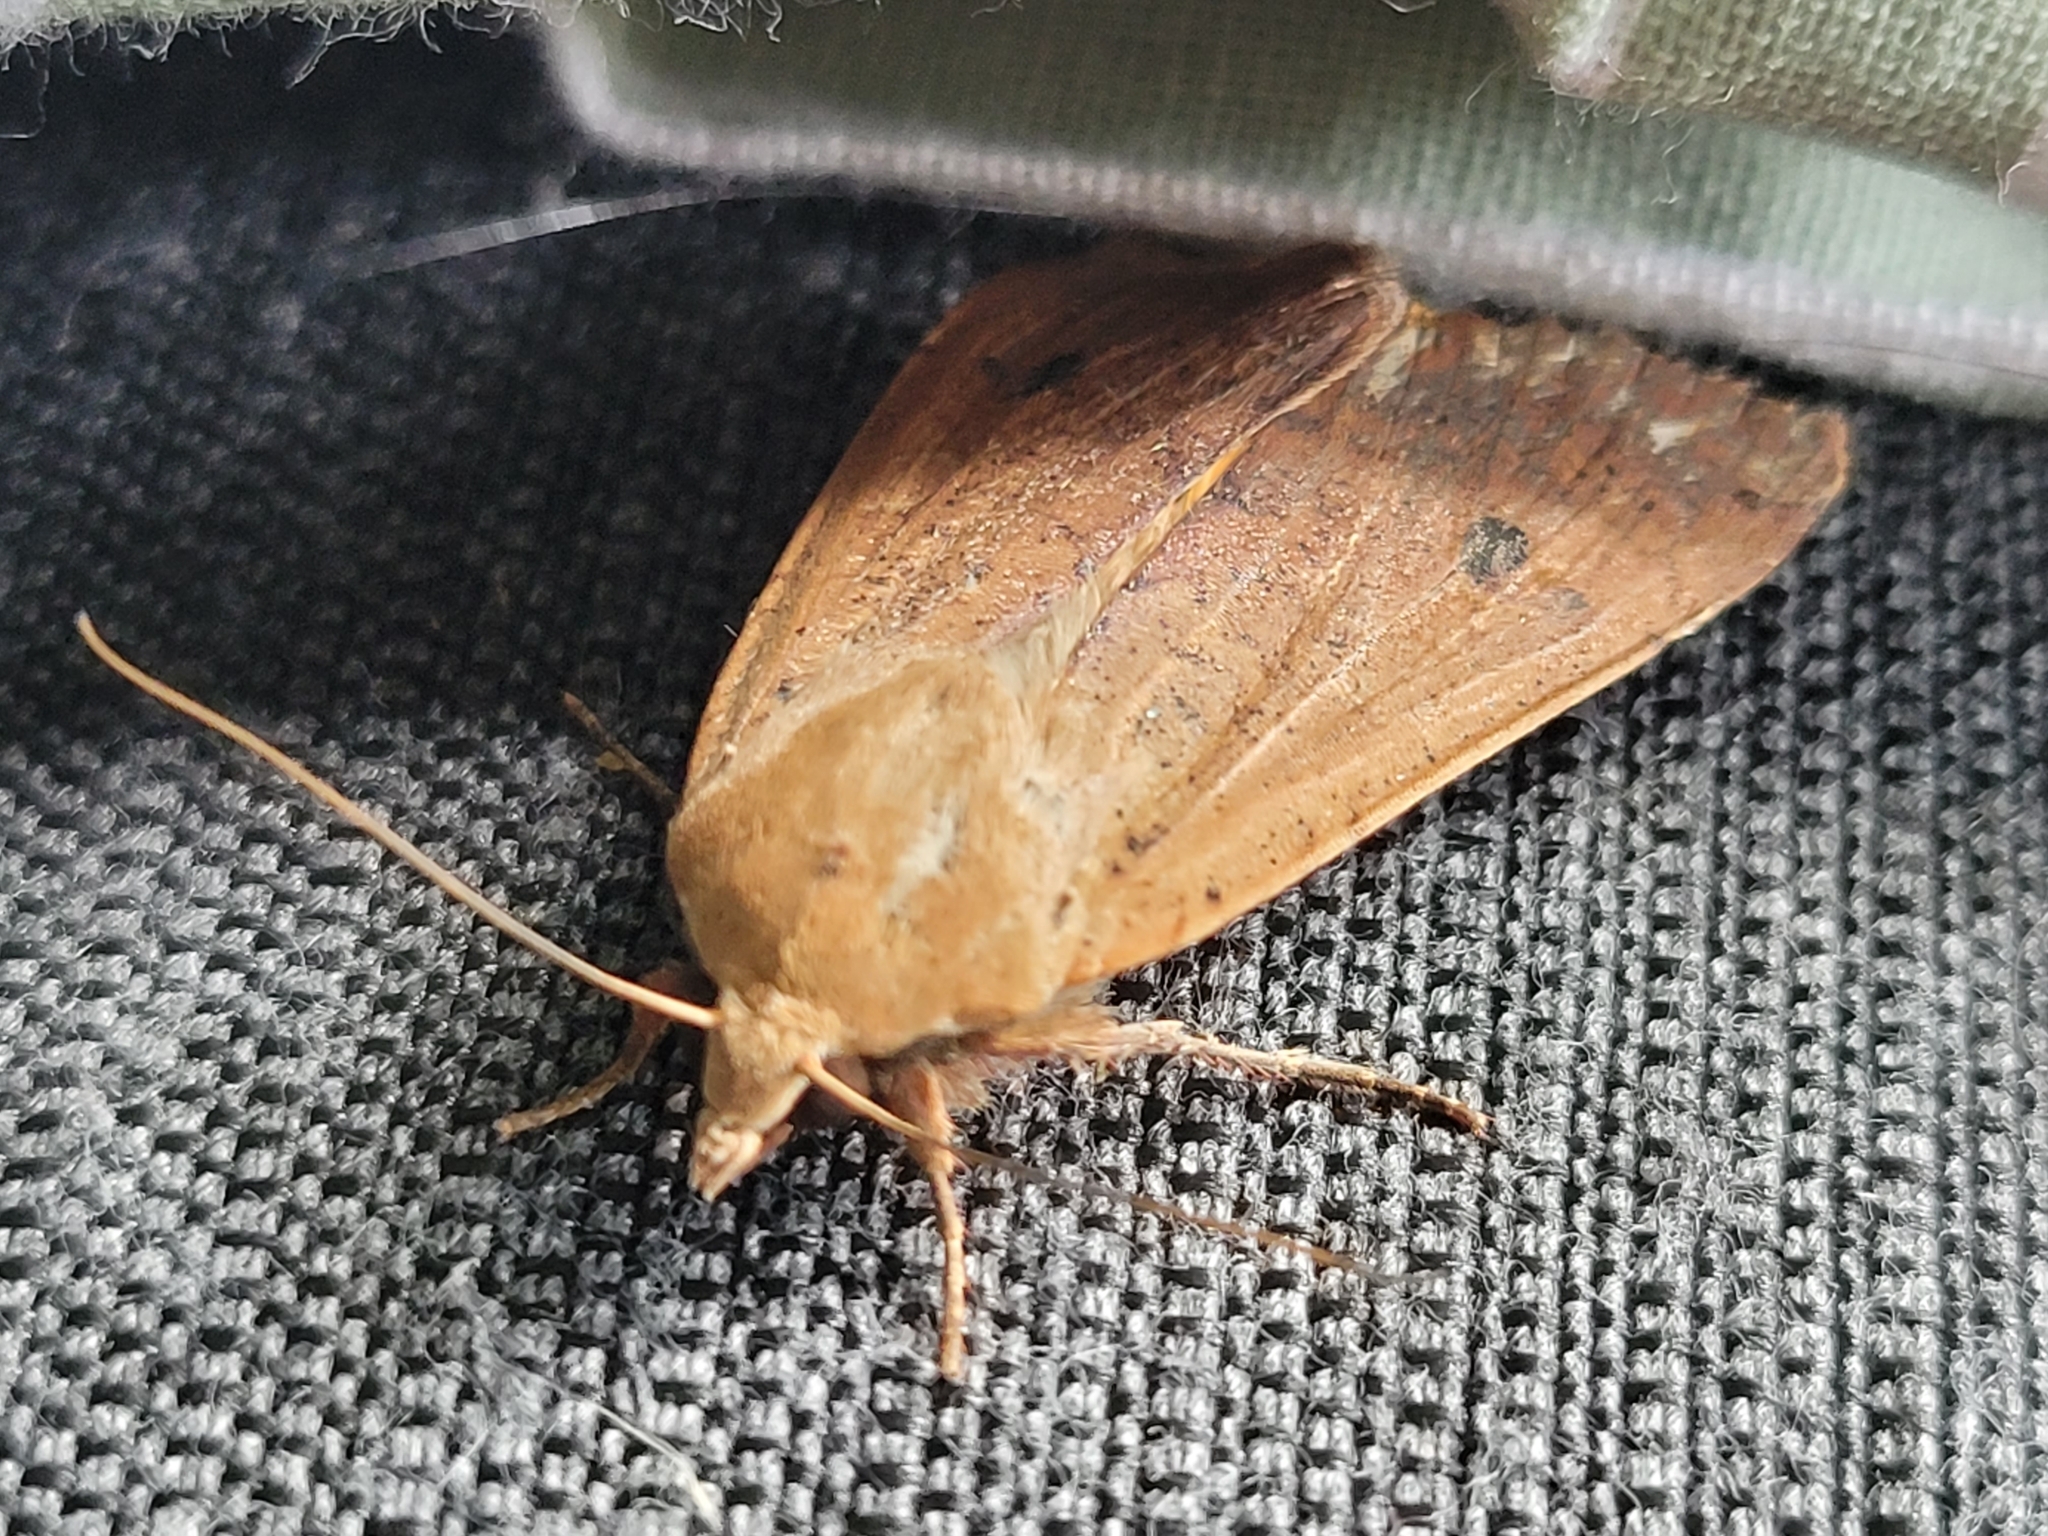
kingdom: Animalia
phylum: Arthropoda
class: Insecta
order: Lepidoptera
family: Noctuidae
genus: Noctua
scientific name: Noctua pronuba
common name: Large yellow underwing
